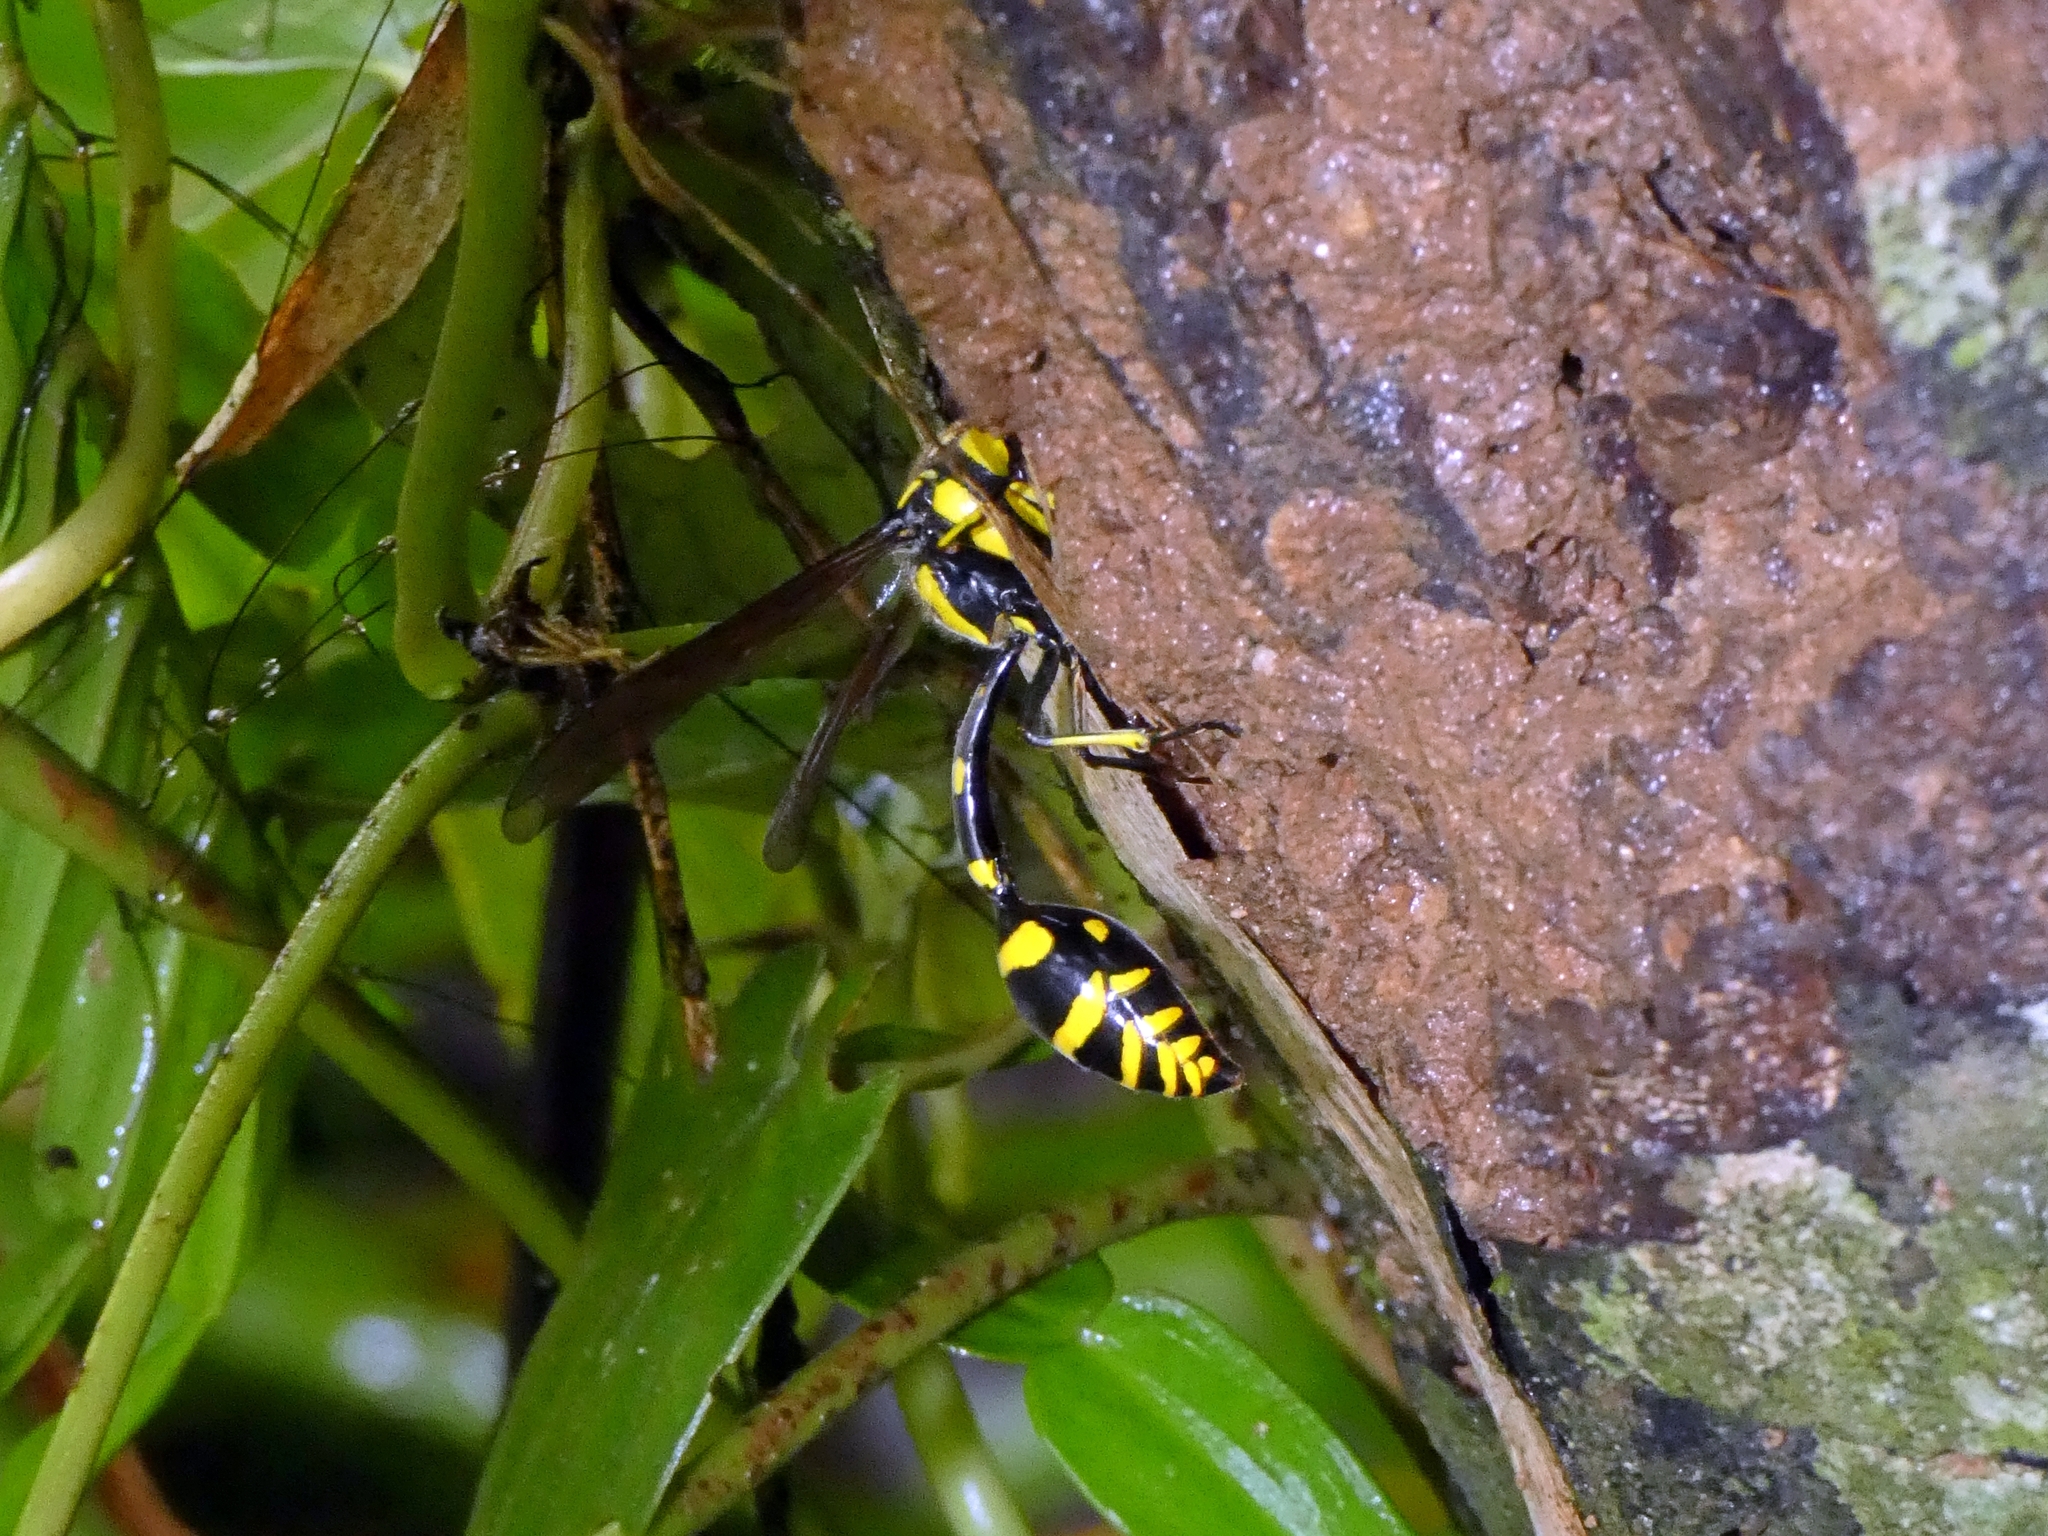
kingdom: Animalia
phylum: Arthropoda
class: Insecta
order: Hymenoptera
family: Eumenidae
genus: Phimenes
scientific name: Phimenes arcuatus
